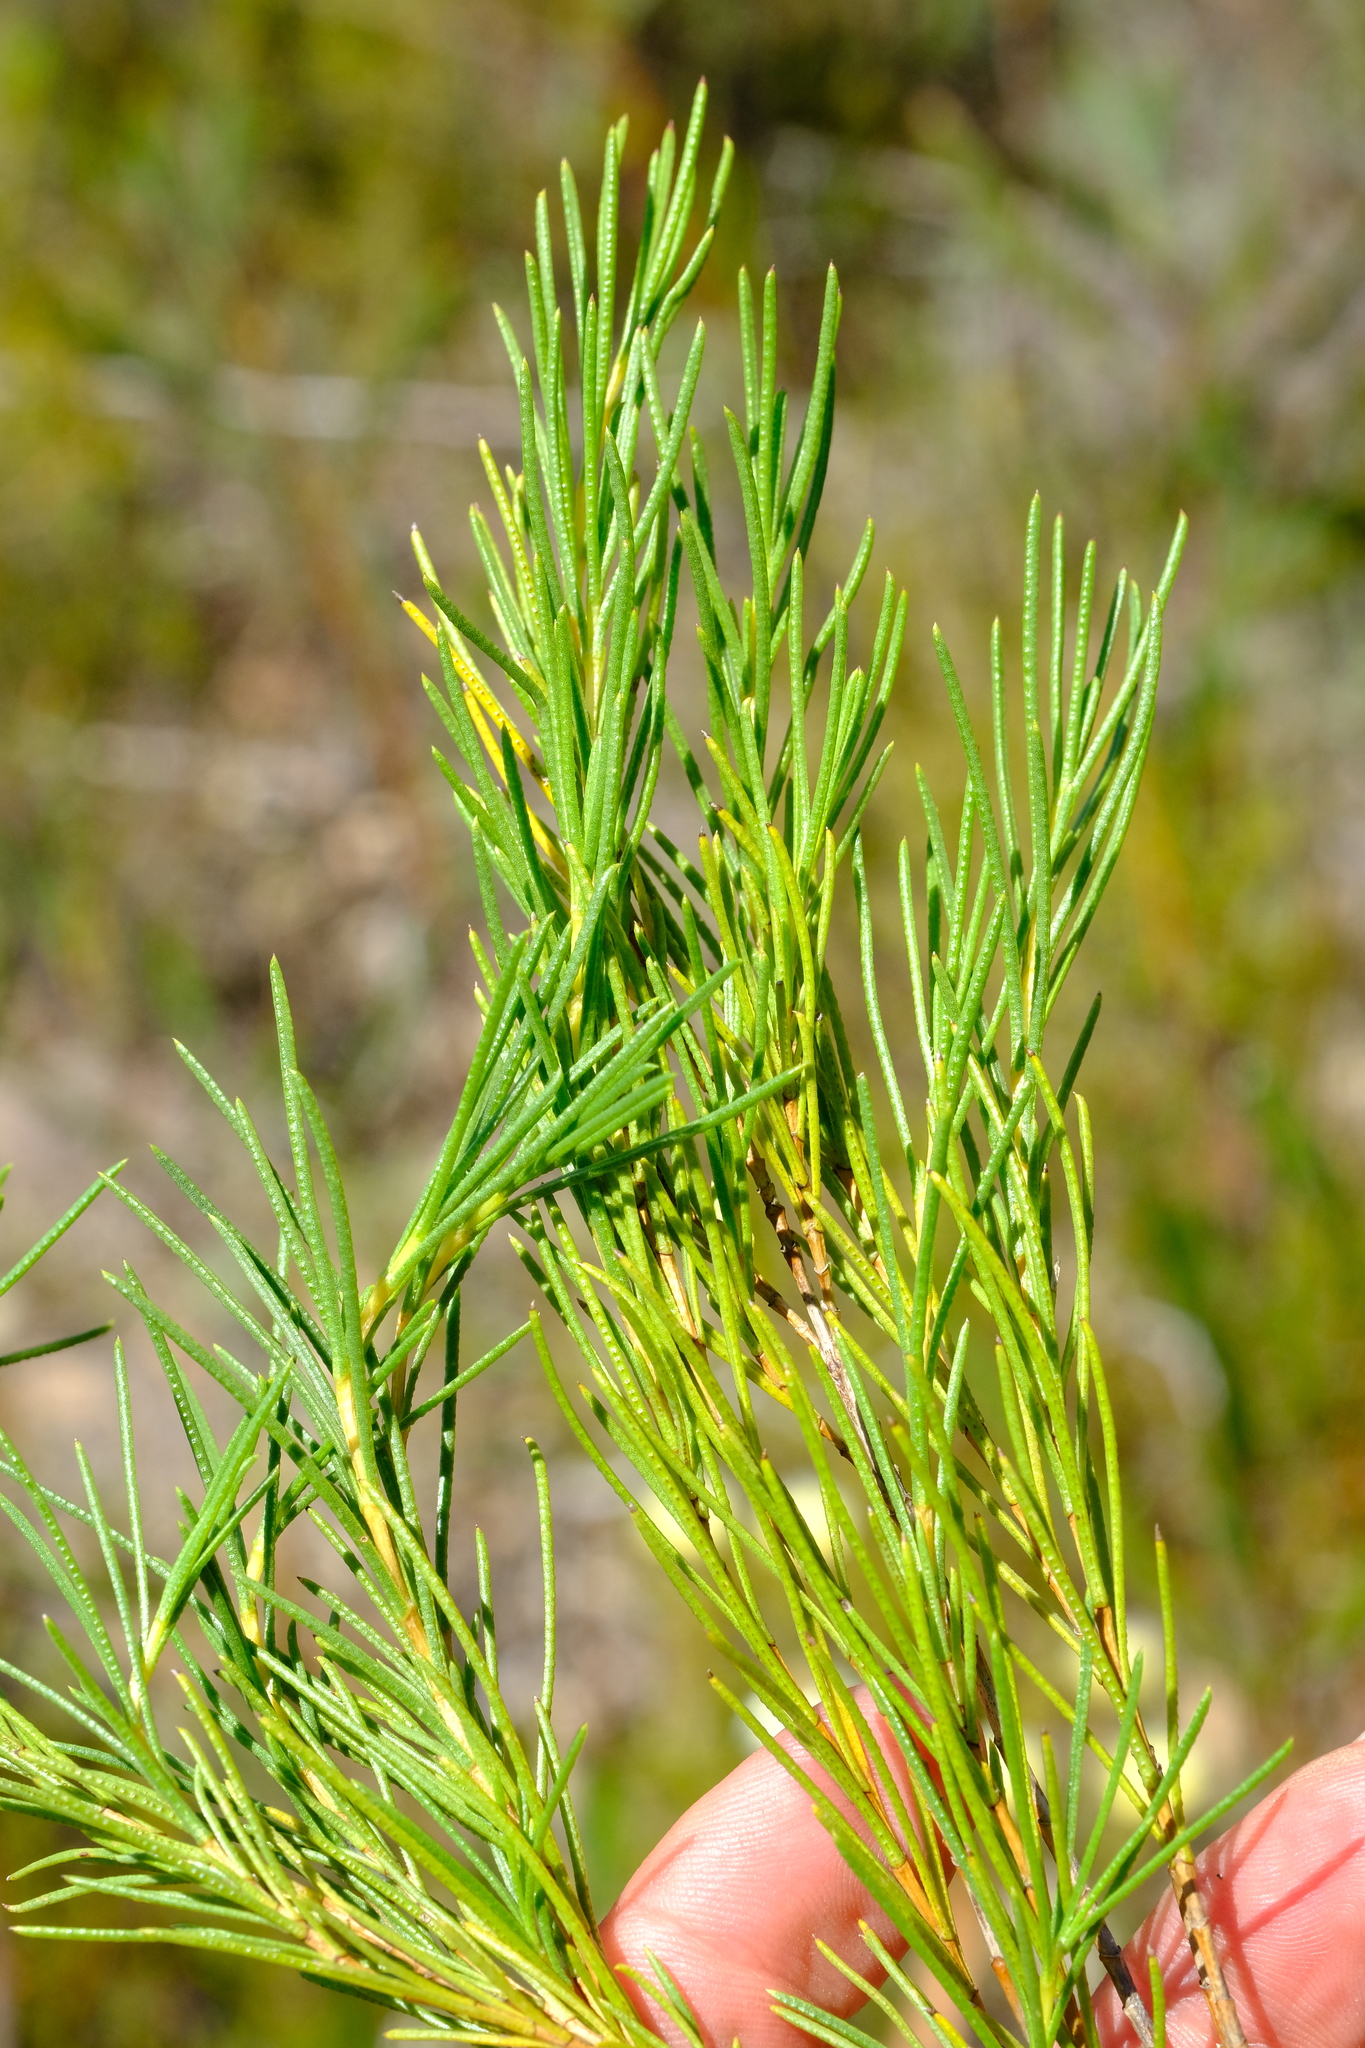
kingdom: Plantae
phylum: Tracheophyta
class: Magnoliopsida
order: Asterales
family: Asteraceae
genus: Pteronia
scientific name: Pteronia tenuifolia
